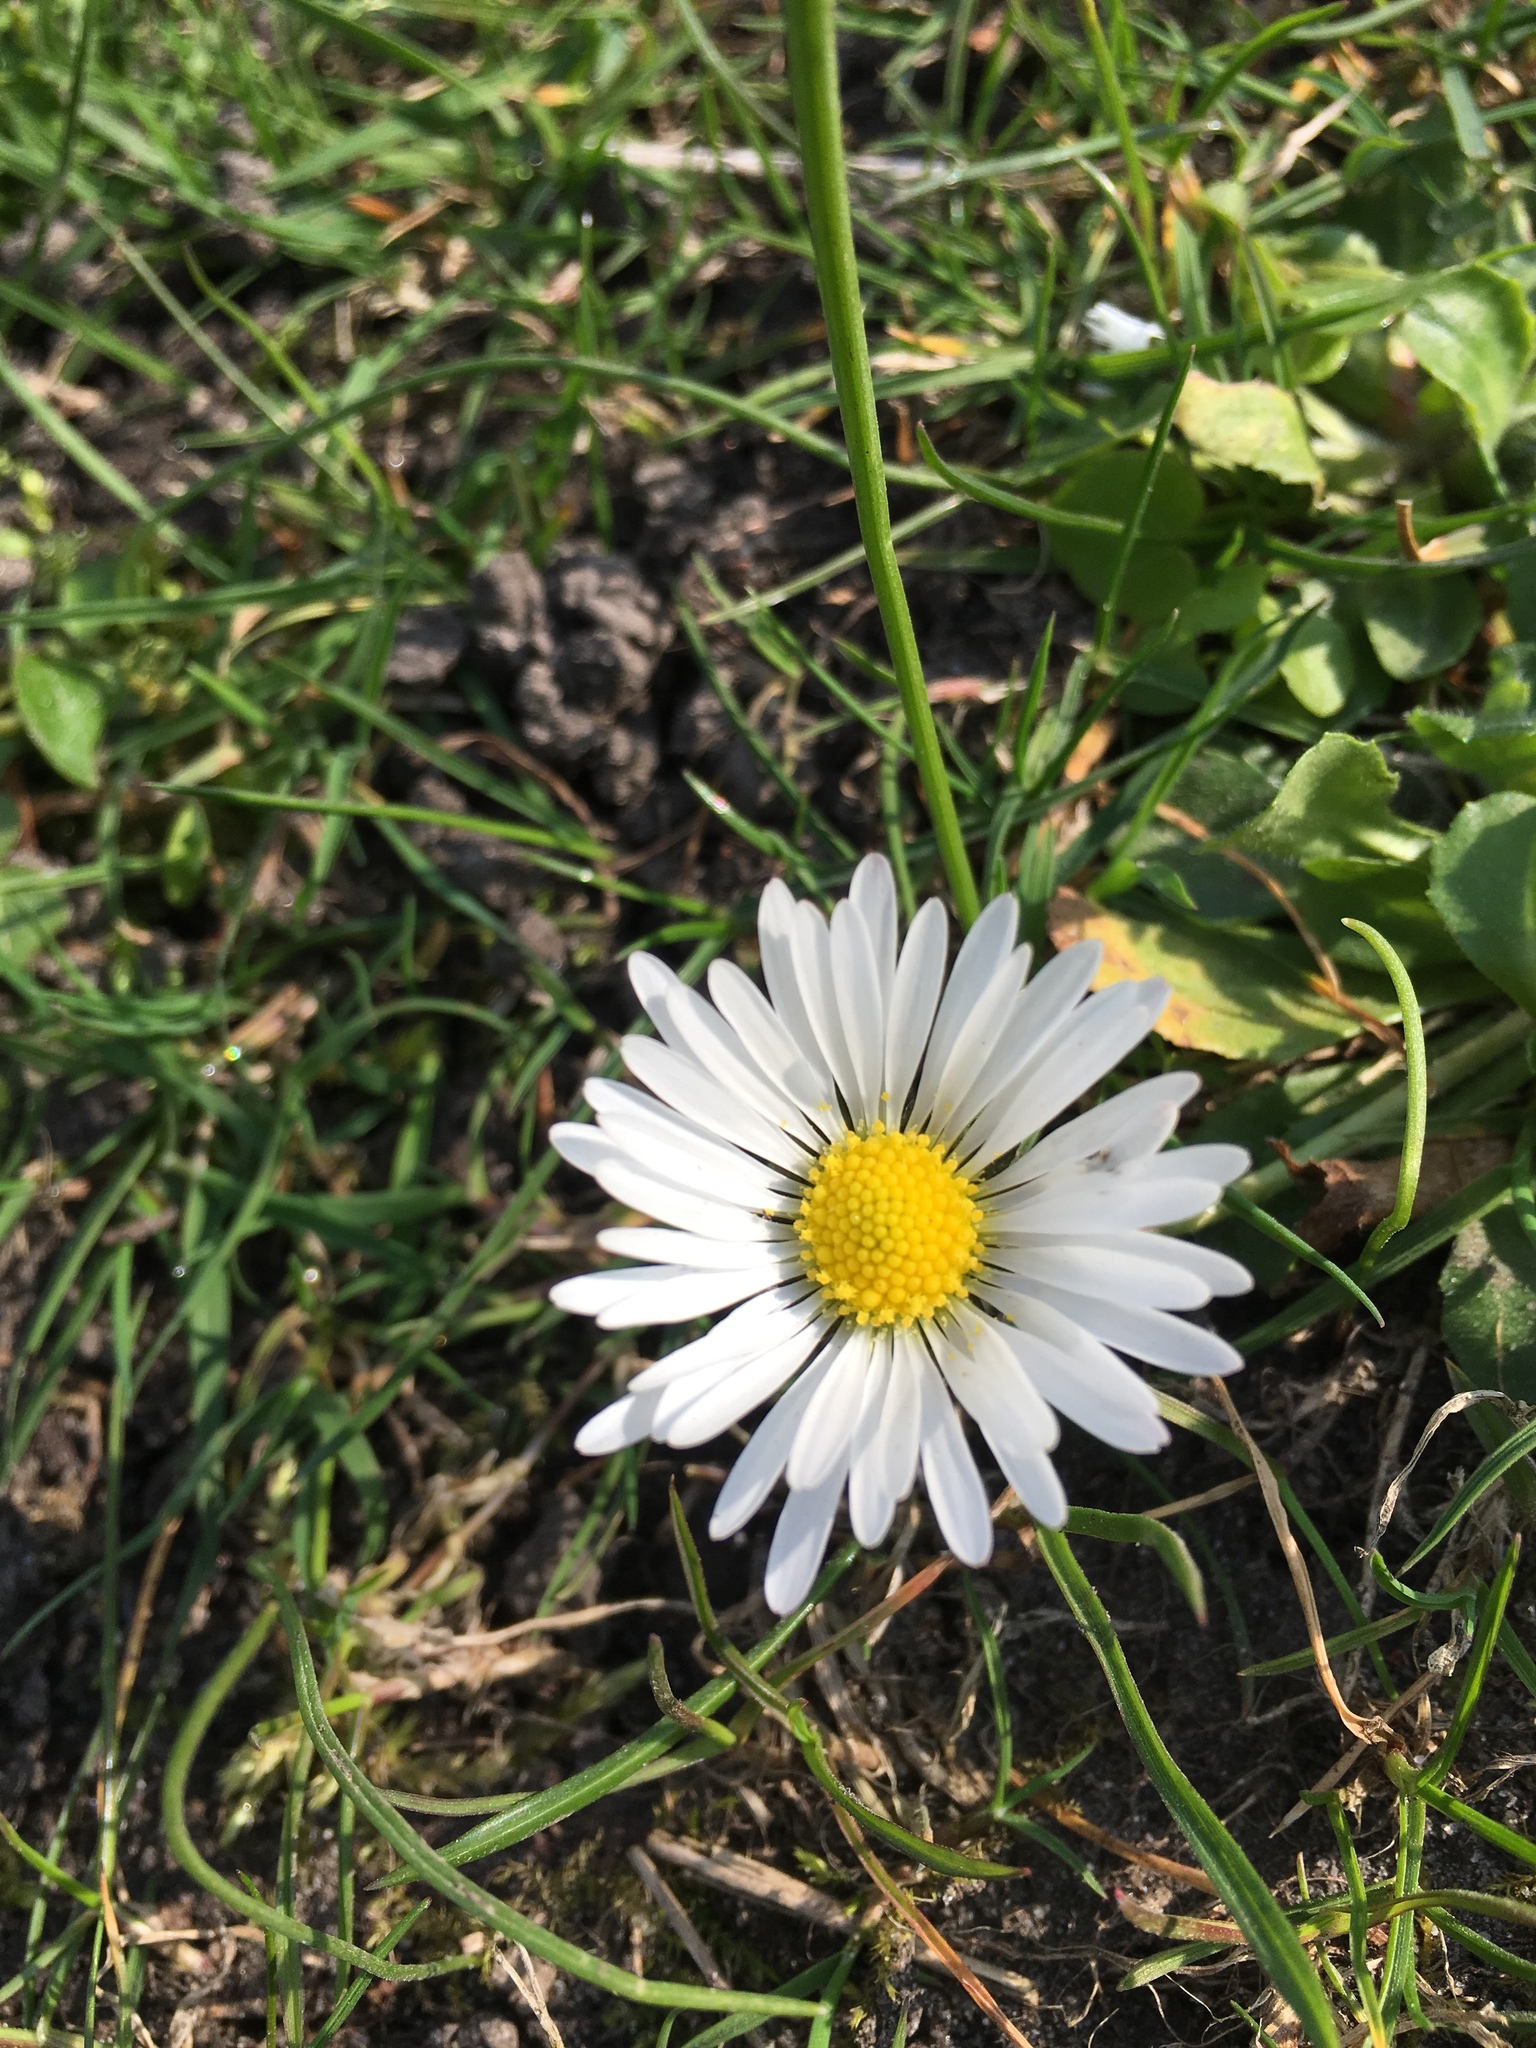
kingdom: Plantae
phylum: Tracheophyta
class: Magnoliopsida
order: Asterales
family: Asteraceae
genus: Bellis
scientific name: Bellis perennis
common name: Lawndaisy
